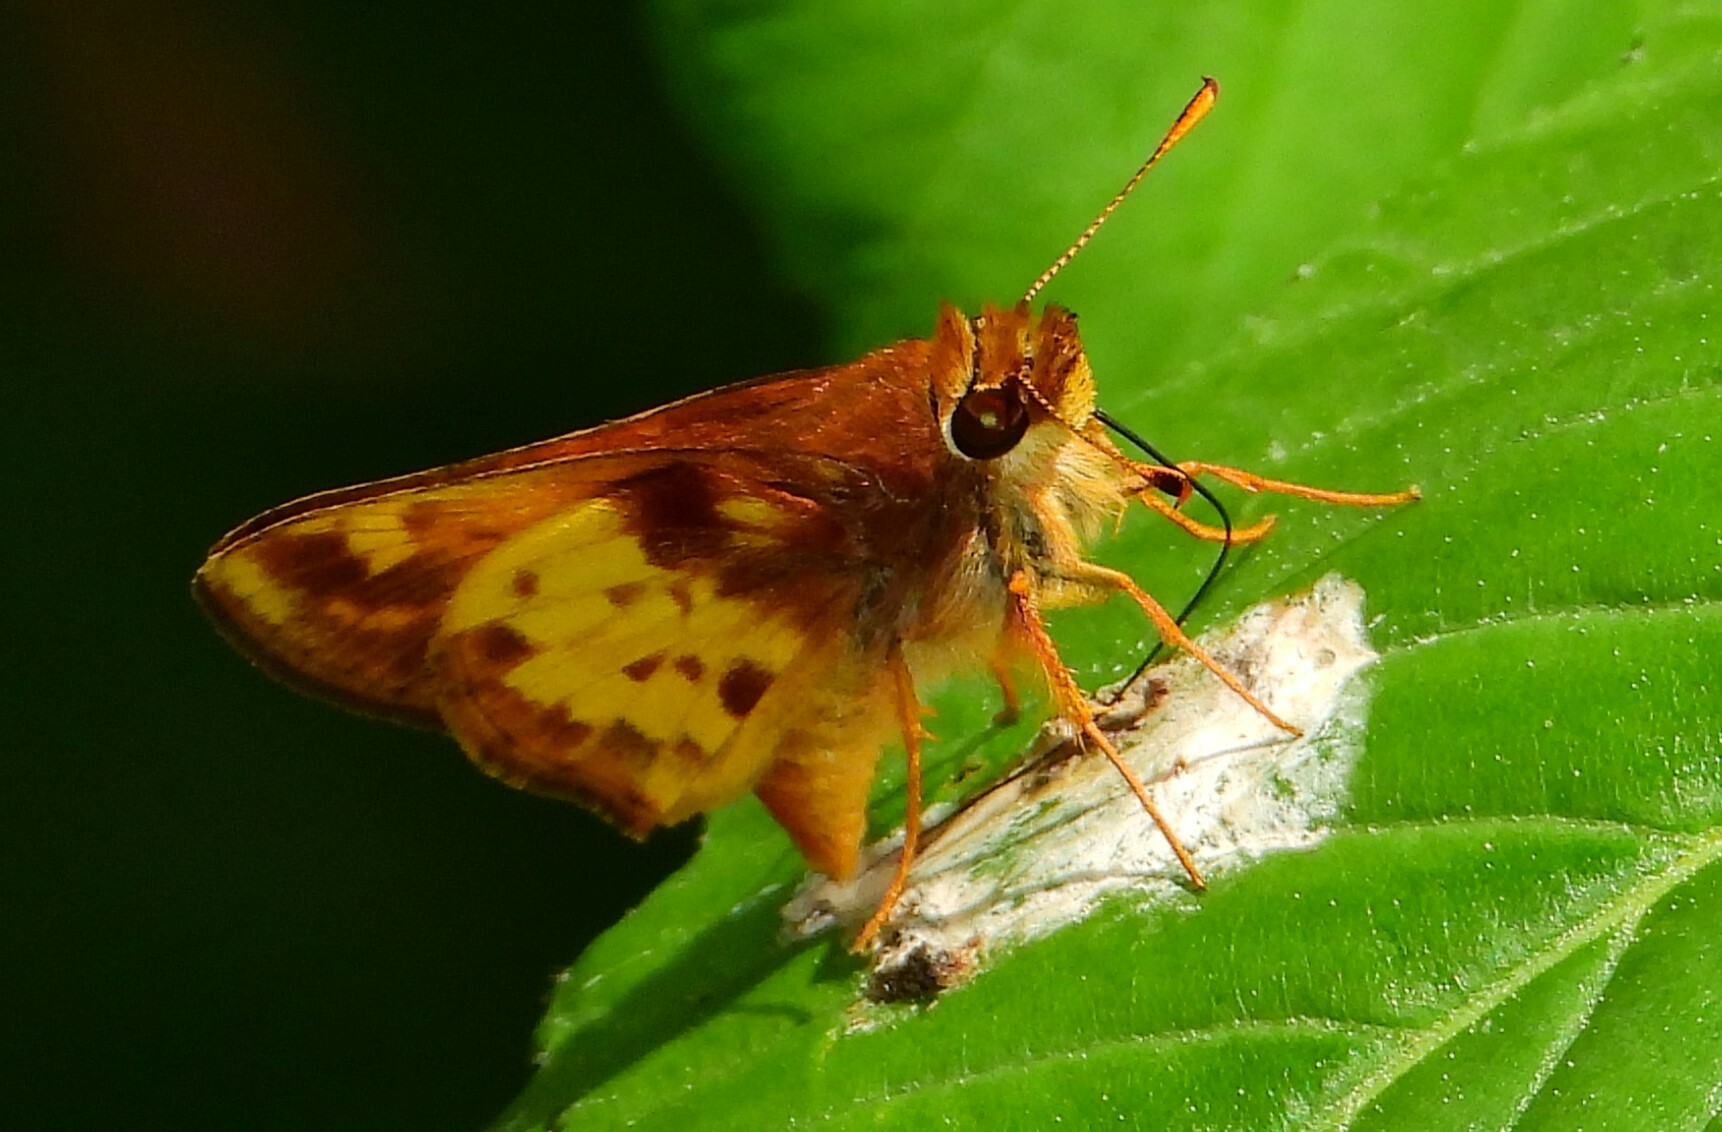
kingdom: Animalia
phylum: Arthropoda
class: Insecta
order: Lepidoptera
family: Hesperiidae
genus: Lon
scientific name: Lon zabulon
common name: Zabulon skipper
